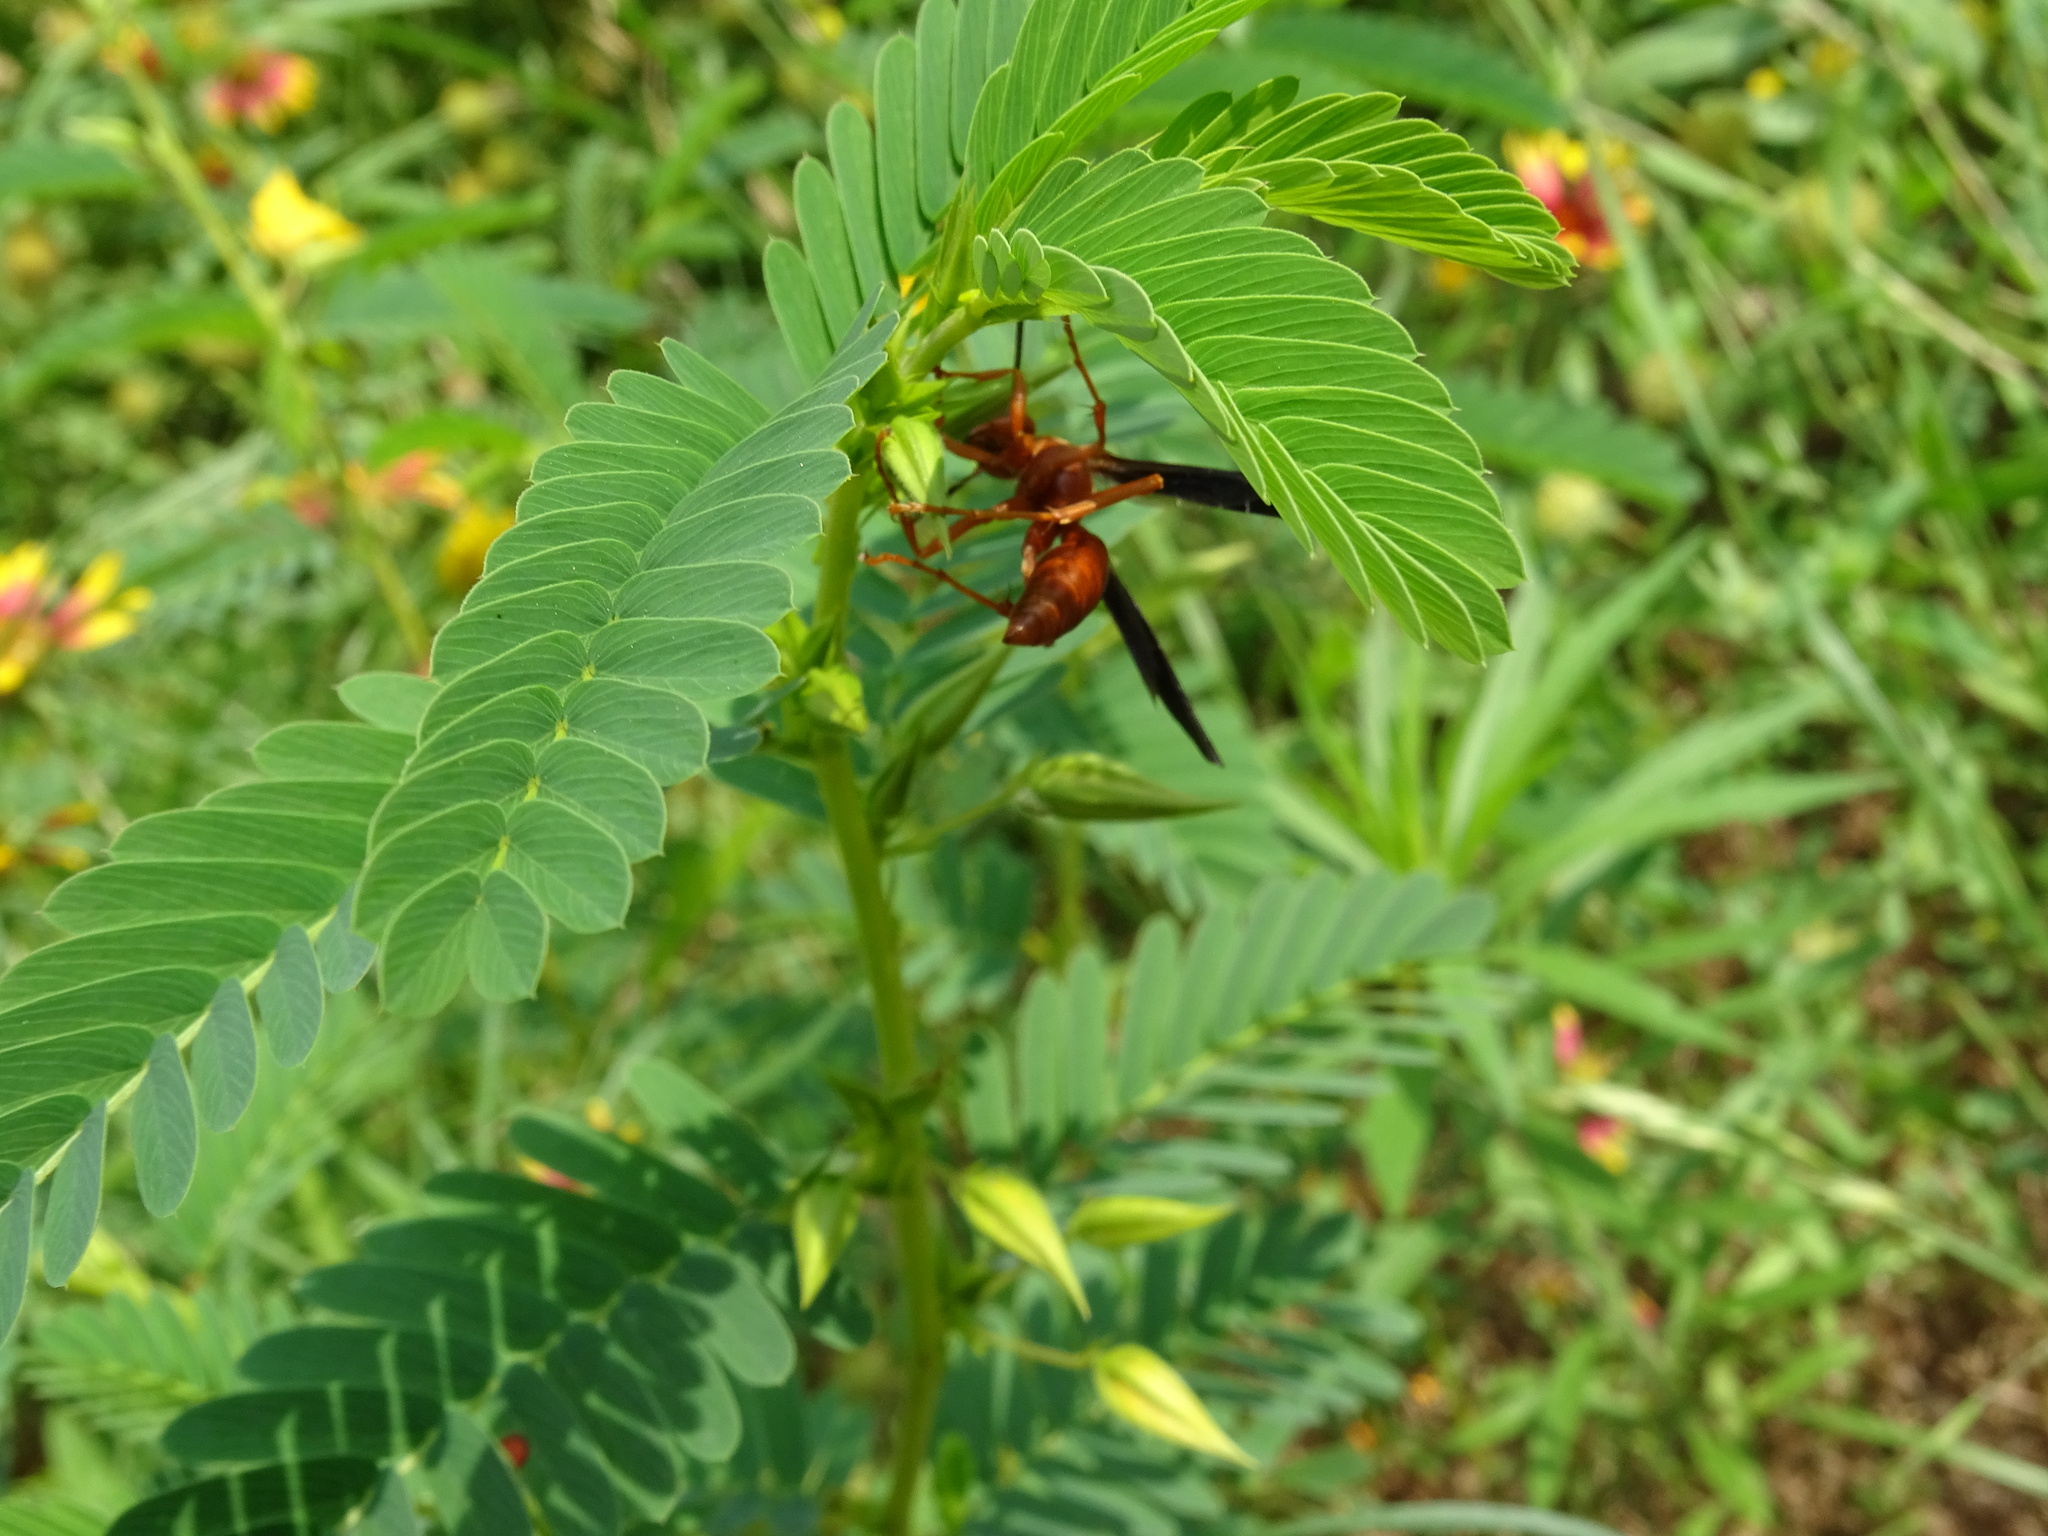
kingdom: Animalia
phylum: Arthropoda
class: Insecta
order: Hymenoptera
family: Eumenidae
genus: Polistes
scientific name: Polistes carolina
